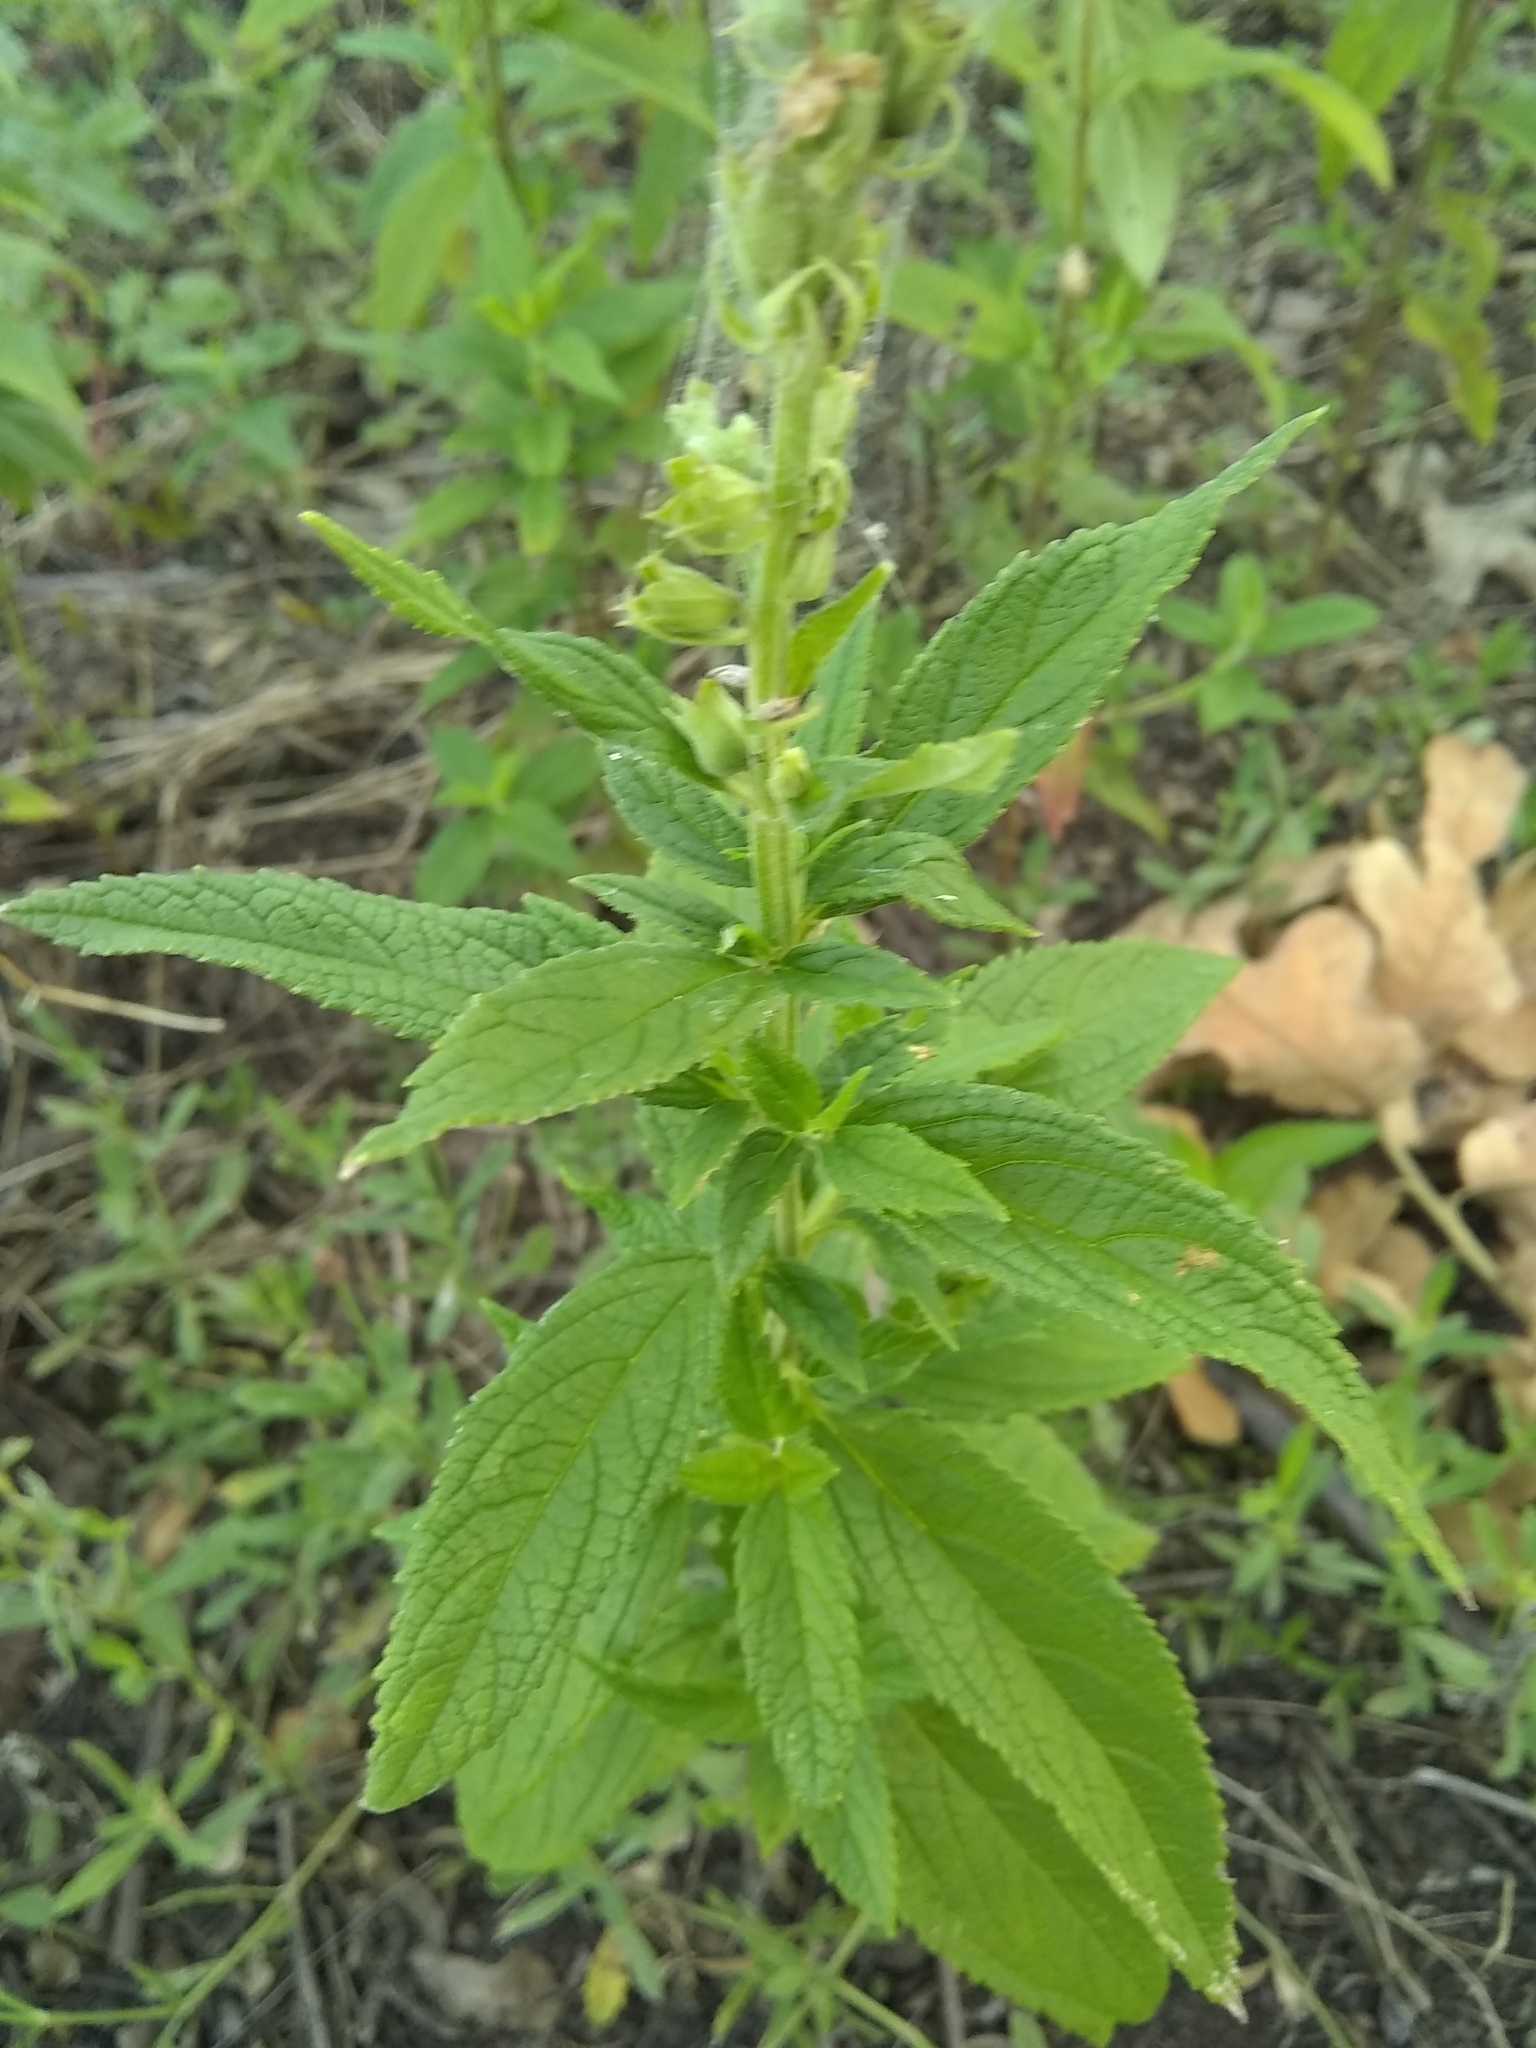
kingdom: Plantae
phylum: Tracheophyta
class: Magnoliopsida
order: Lamiales
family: Lamiaceae
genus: Teucrium
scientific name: Teucrium canadense
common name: American germander
